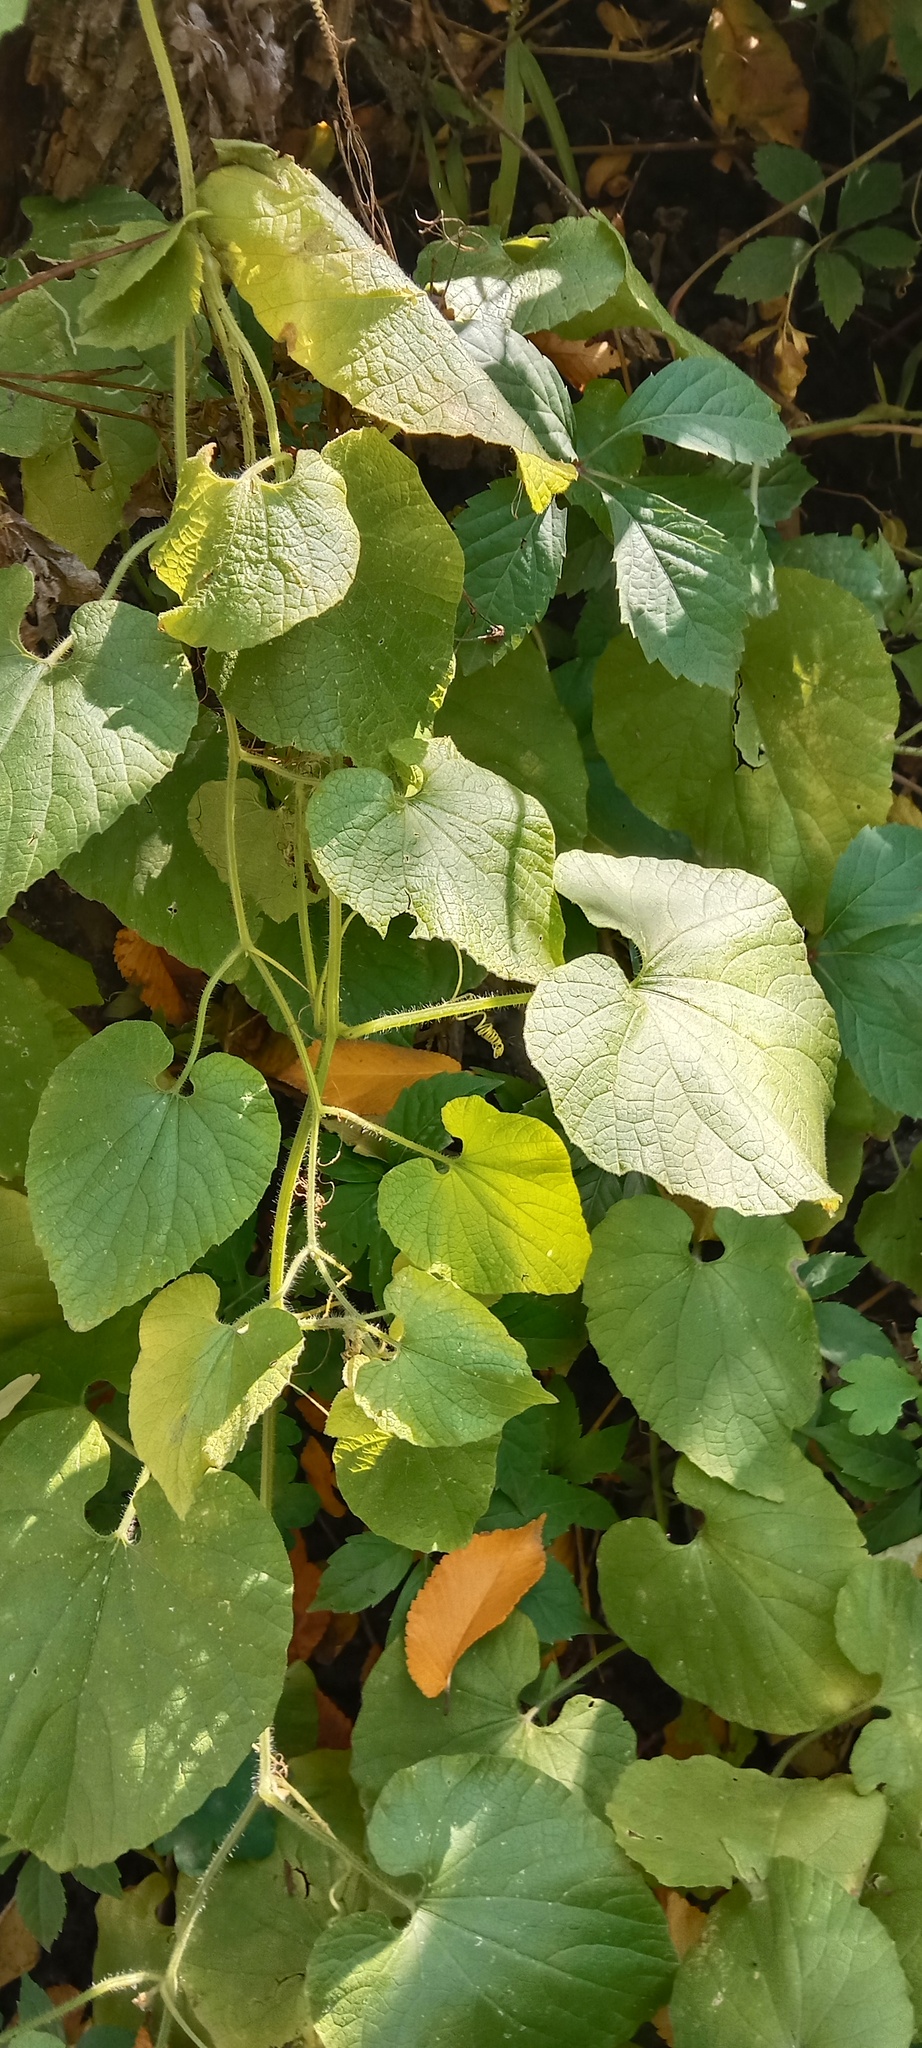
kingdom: Plantae
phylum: Tracheophyta
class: Magnoliopsida
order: Cucurbitales
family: Cucurbitaceae
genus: Thladiantha
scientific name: Thladiantha dubia
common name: Manchu tubergourd
